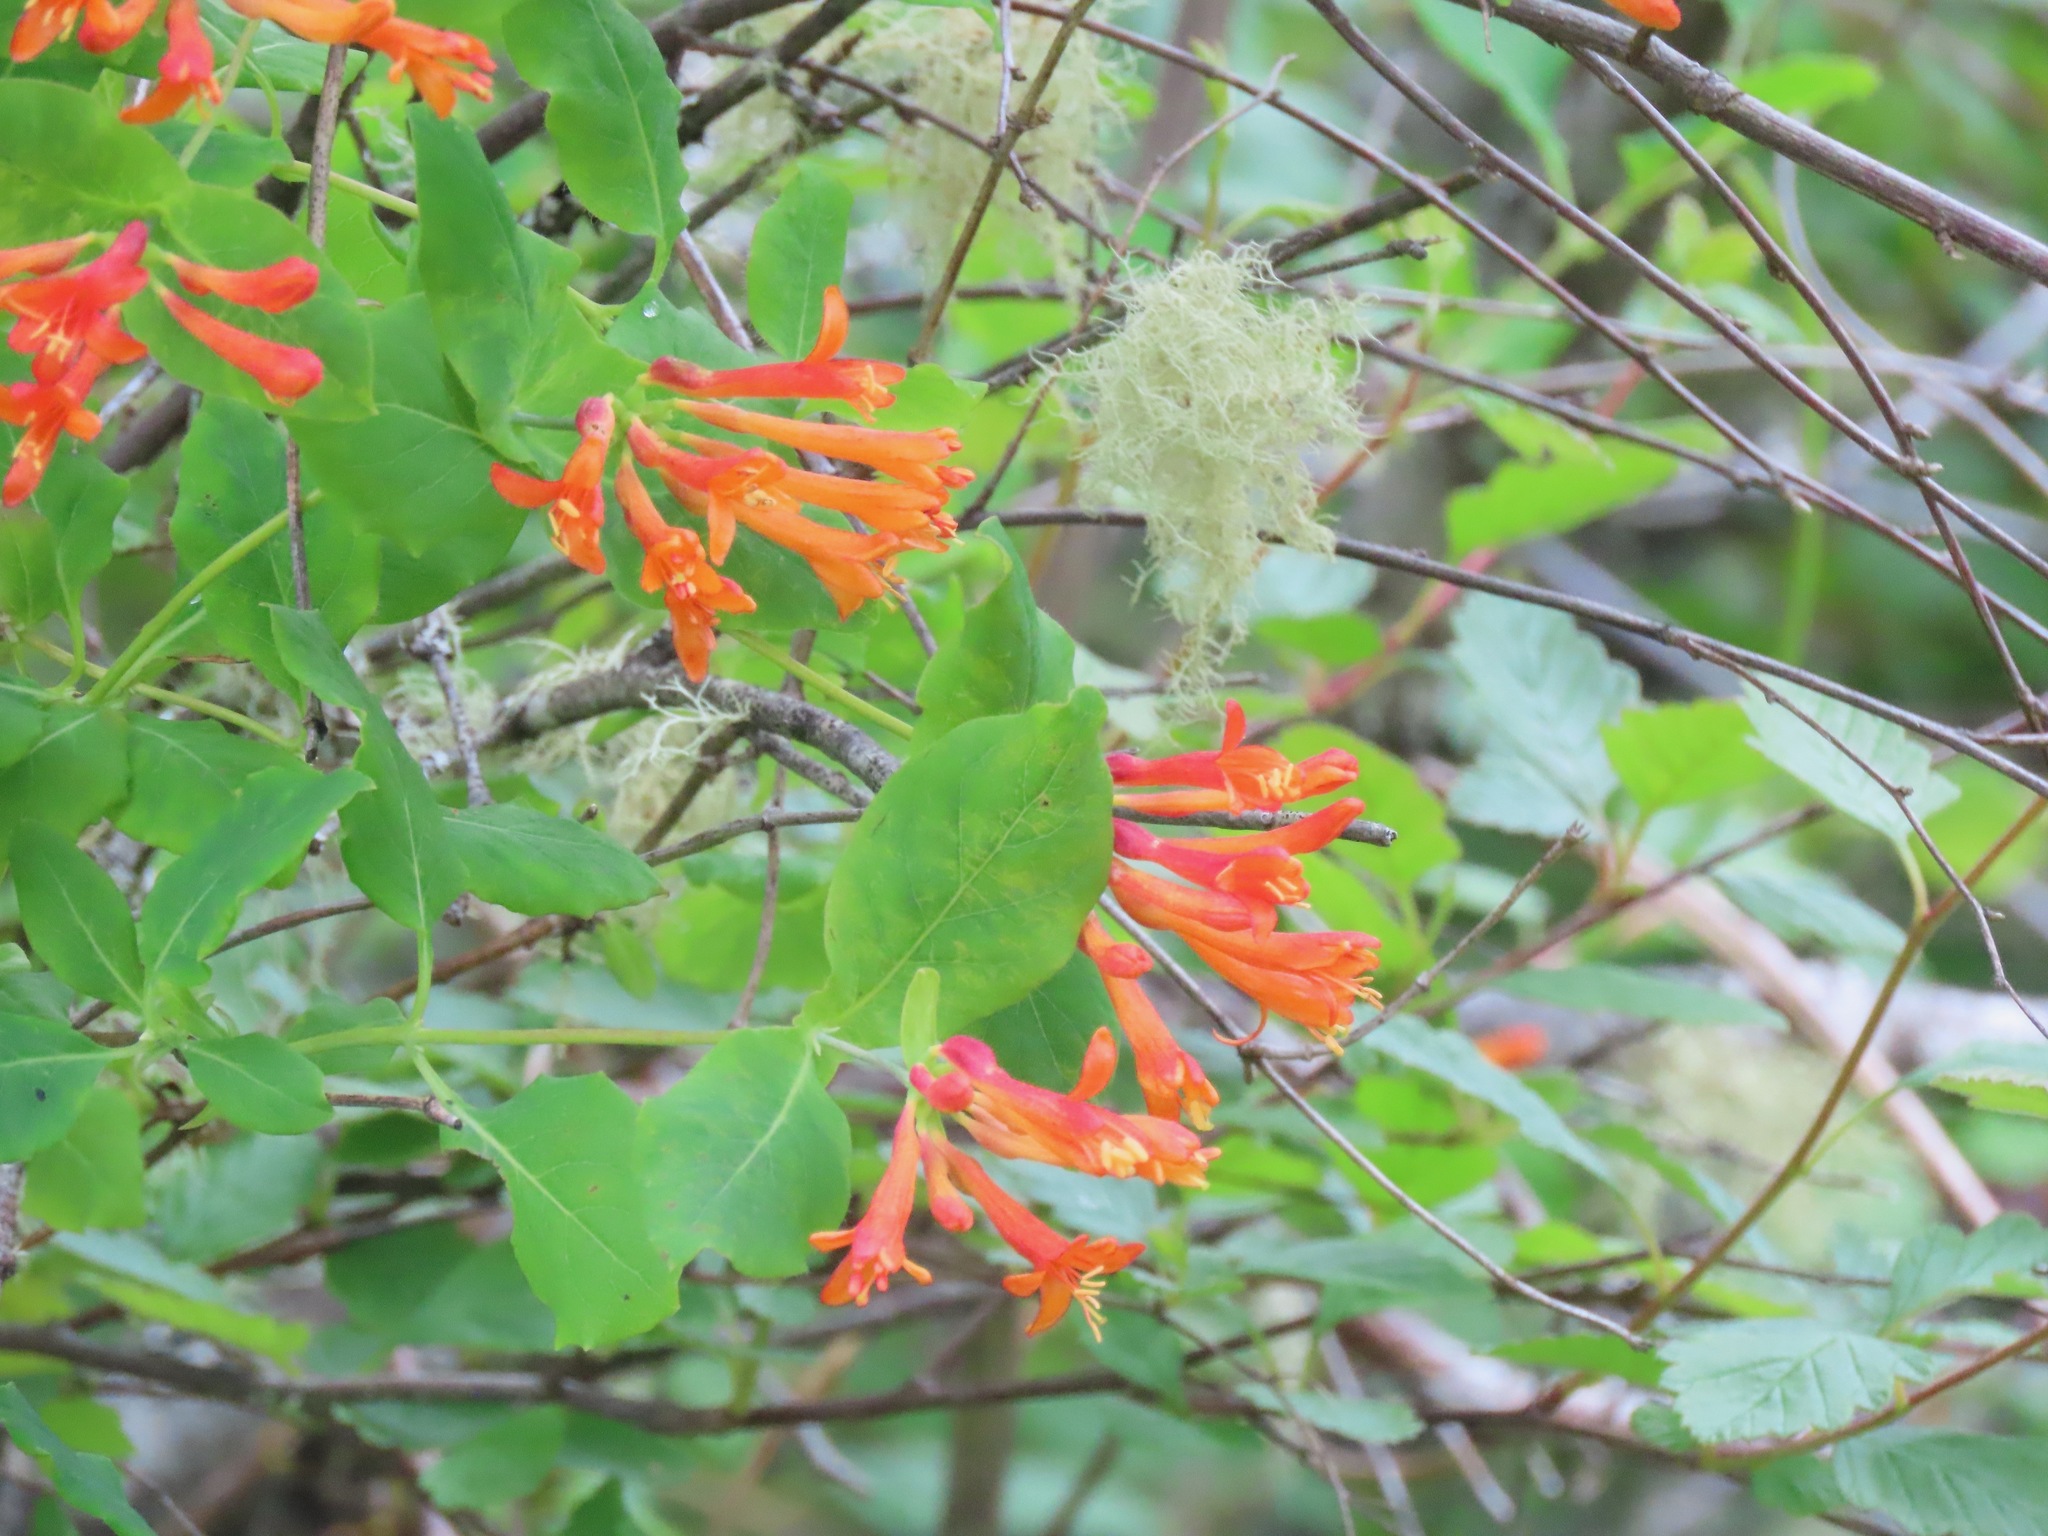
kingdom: Plantae
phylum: Tracheophyta
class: Magnoliopsida
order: Dipsacales
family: Caprifoliaceae
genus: Lonicera
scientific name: Lonicera ciliosa
